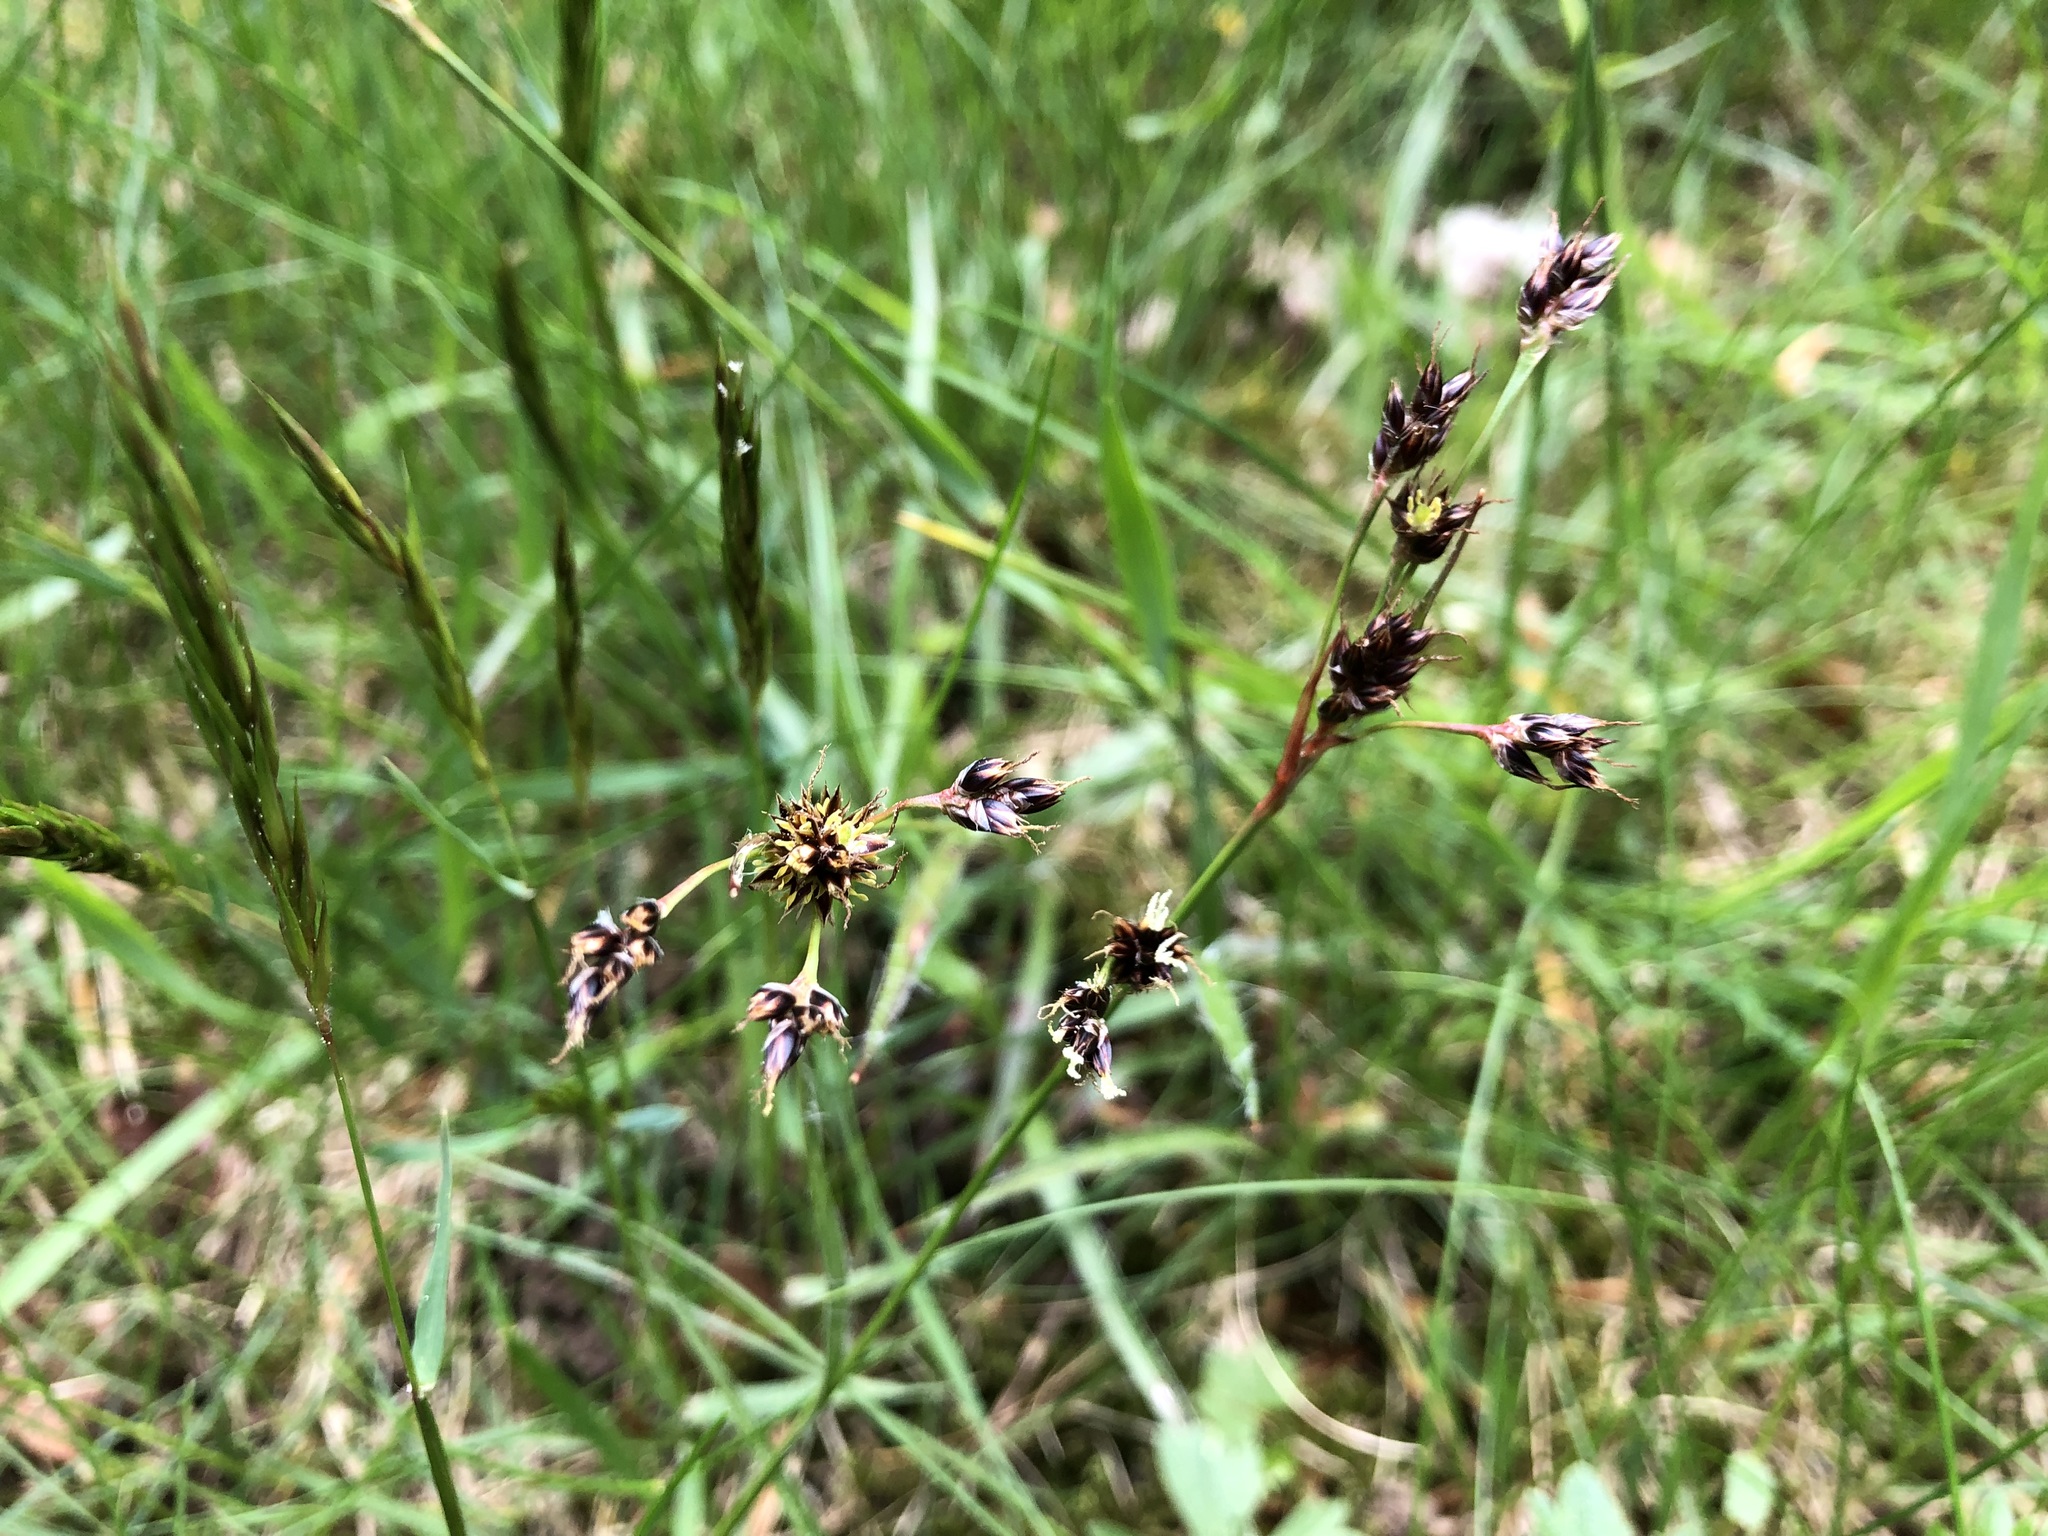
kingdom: Plantae
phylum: Tracheophyta
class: Liliopsida
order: Poales
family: Juncaceae
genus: Luzula
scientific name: Luzula campestris
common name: Field wood-rush
